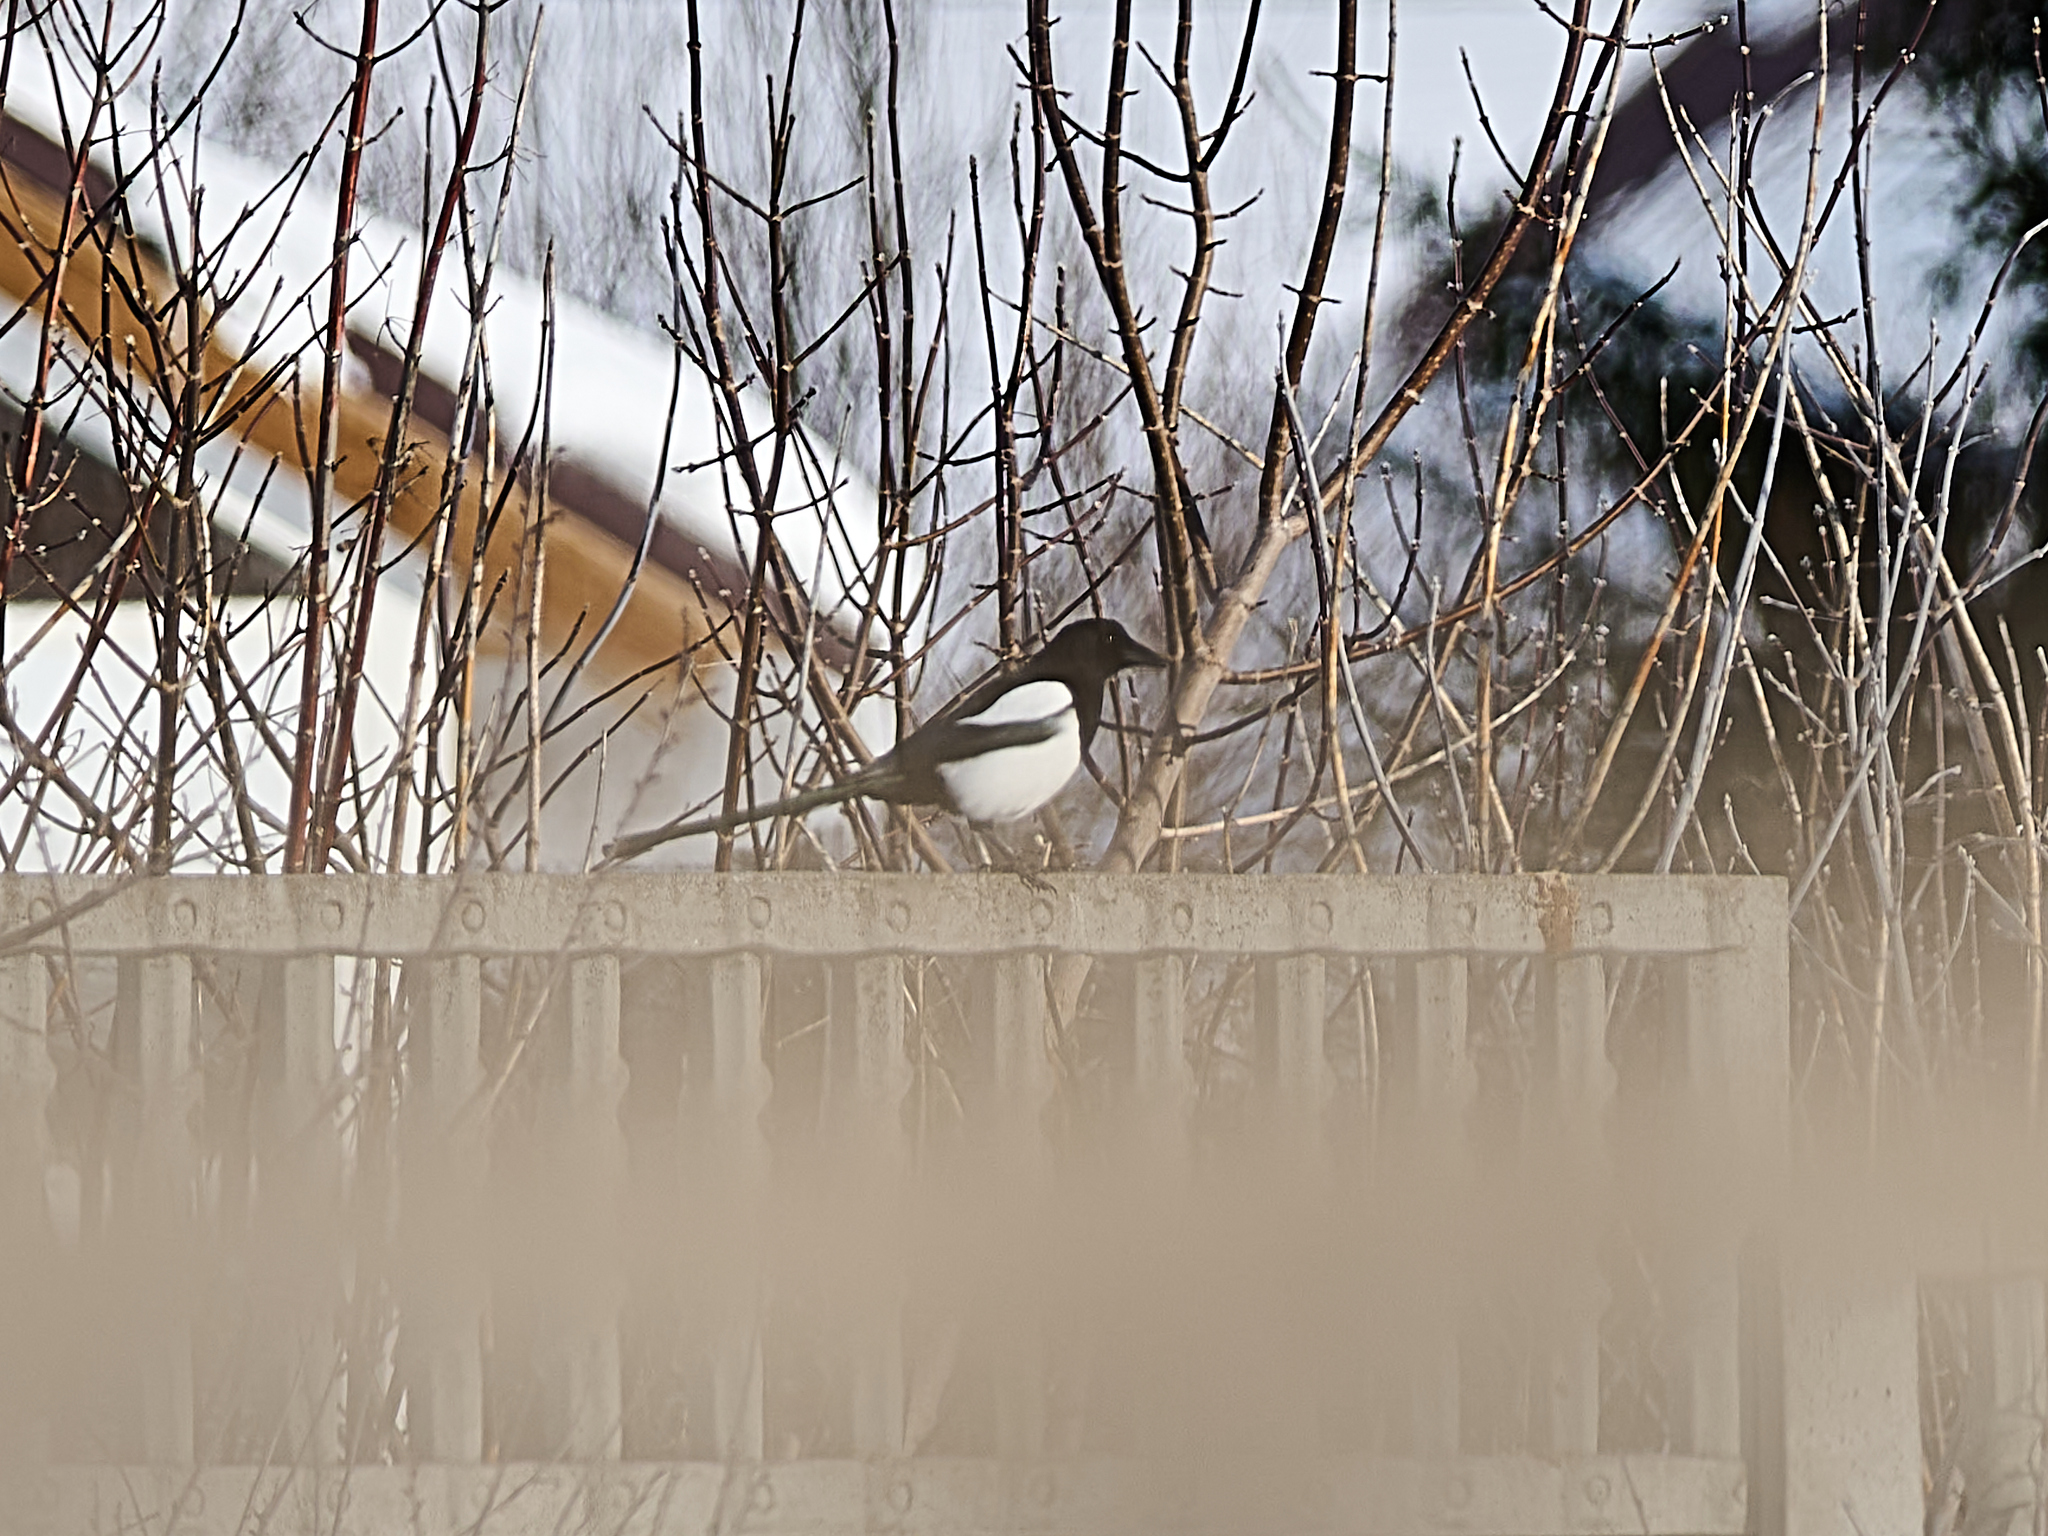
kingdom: Animalia
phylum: Chordata
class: Aves
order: Passeriformes
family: Corvidae
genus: Pica
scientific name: Pica pica
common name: Eurasian magpie
